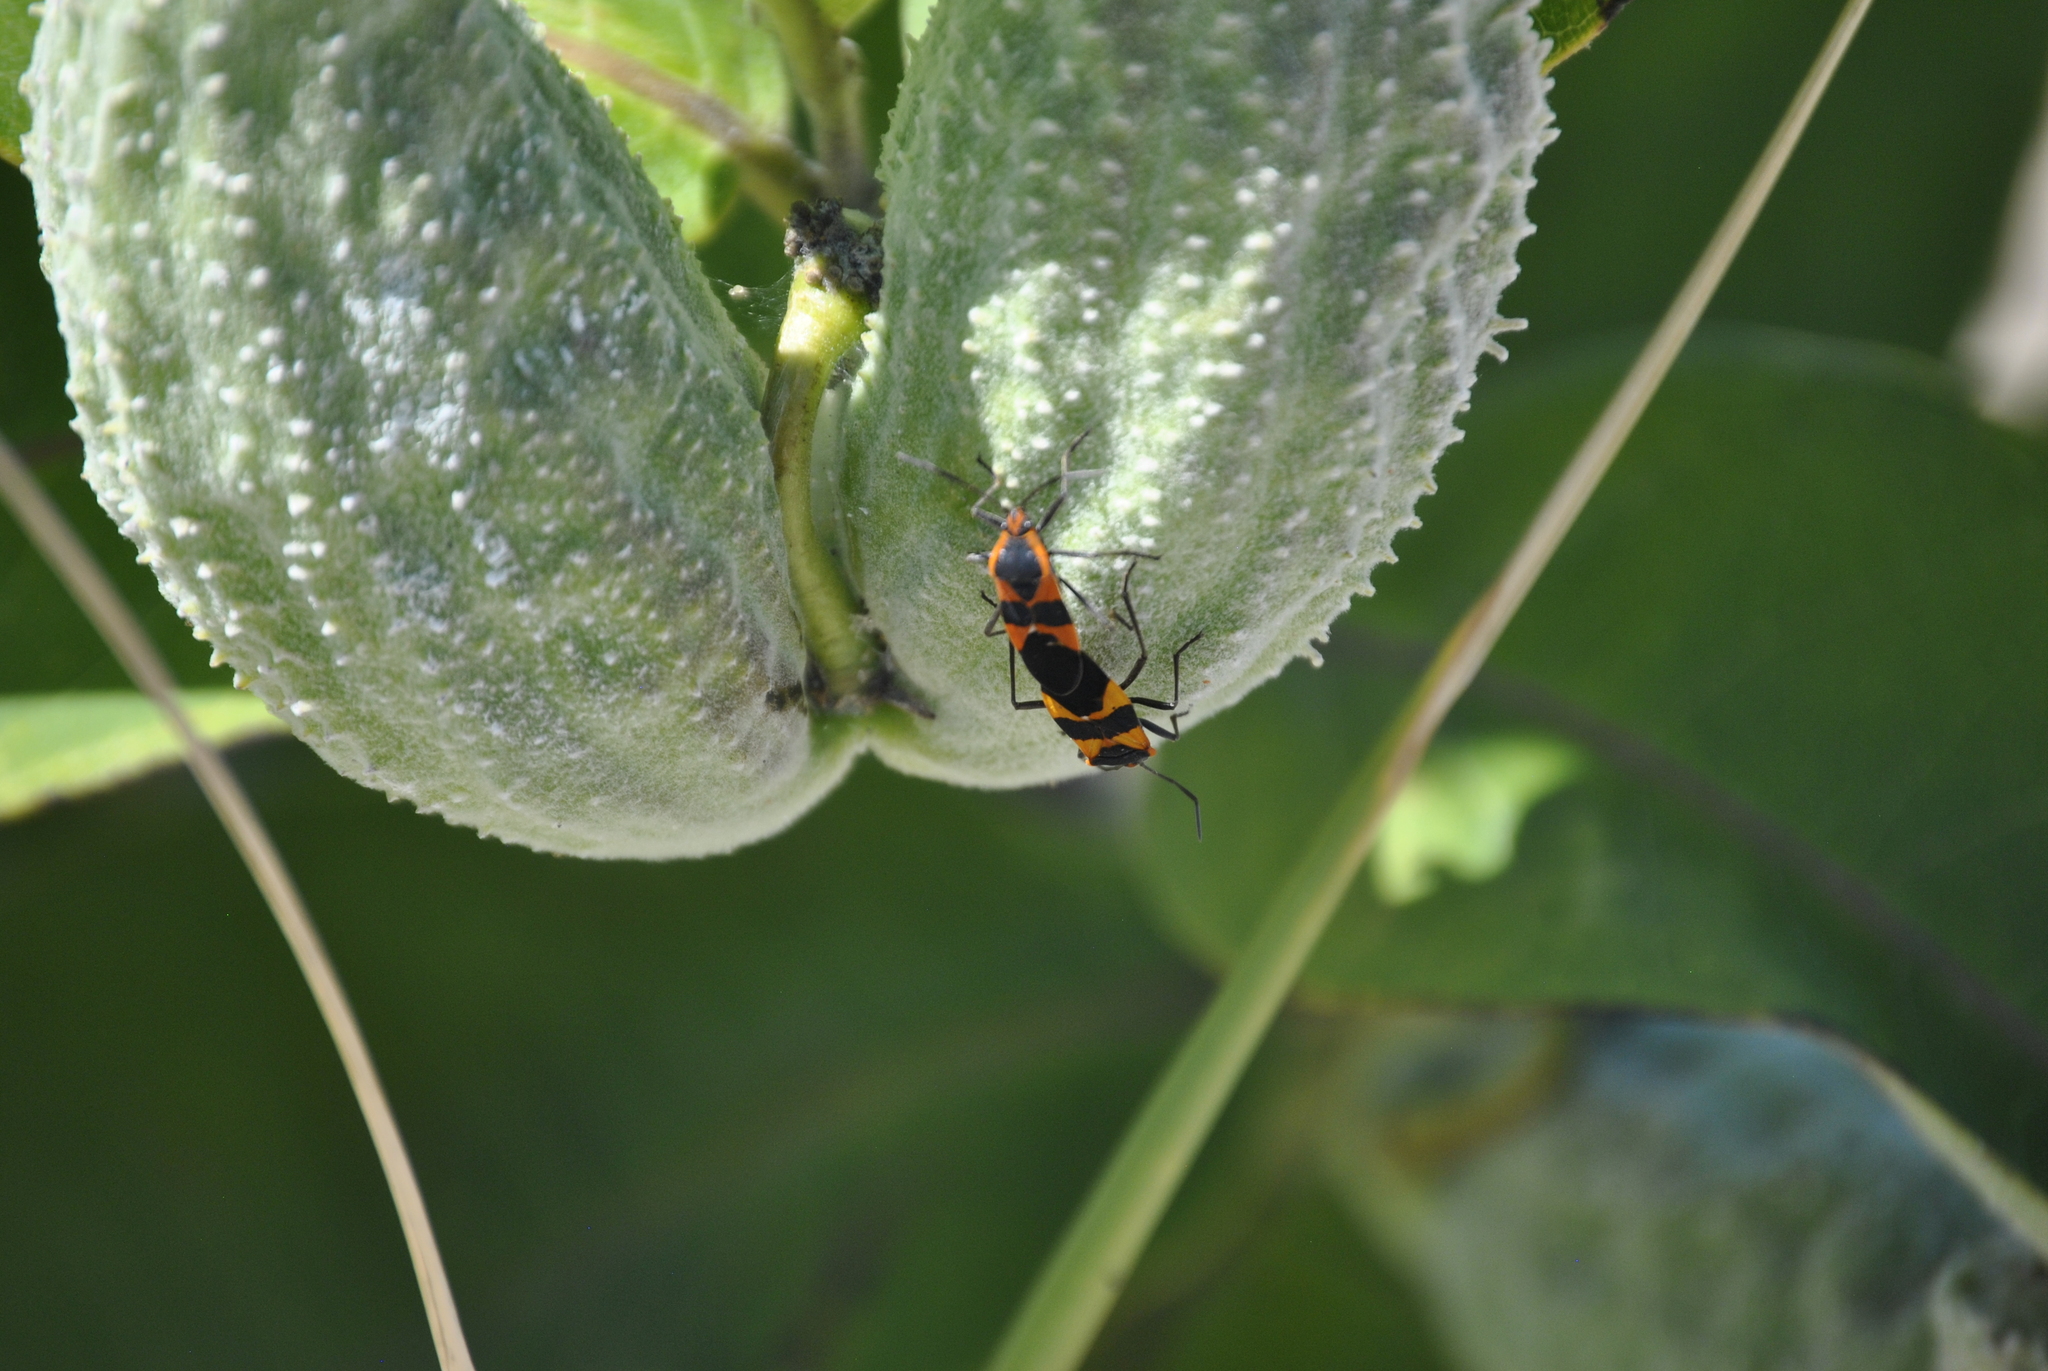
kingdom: Animalia
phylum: Arthropoda
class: Insecta
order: Hemiptera
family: Lygaeidae
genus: Oncopeltus
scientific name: Oncopeltus fasciatus
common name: Large milkweed bug
